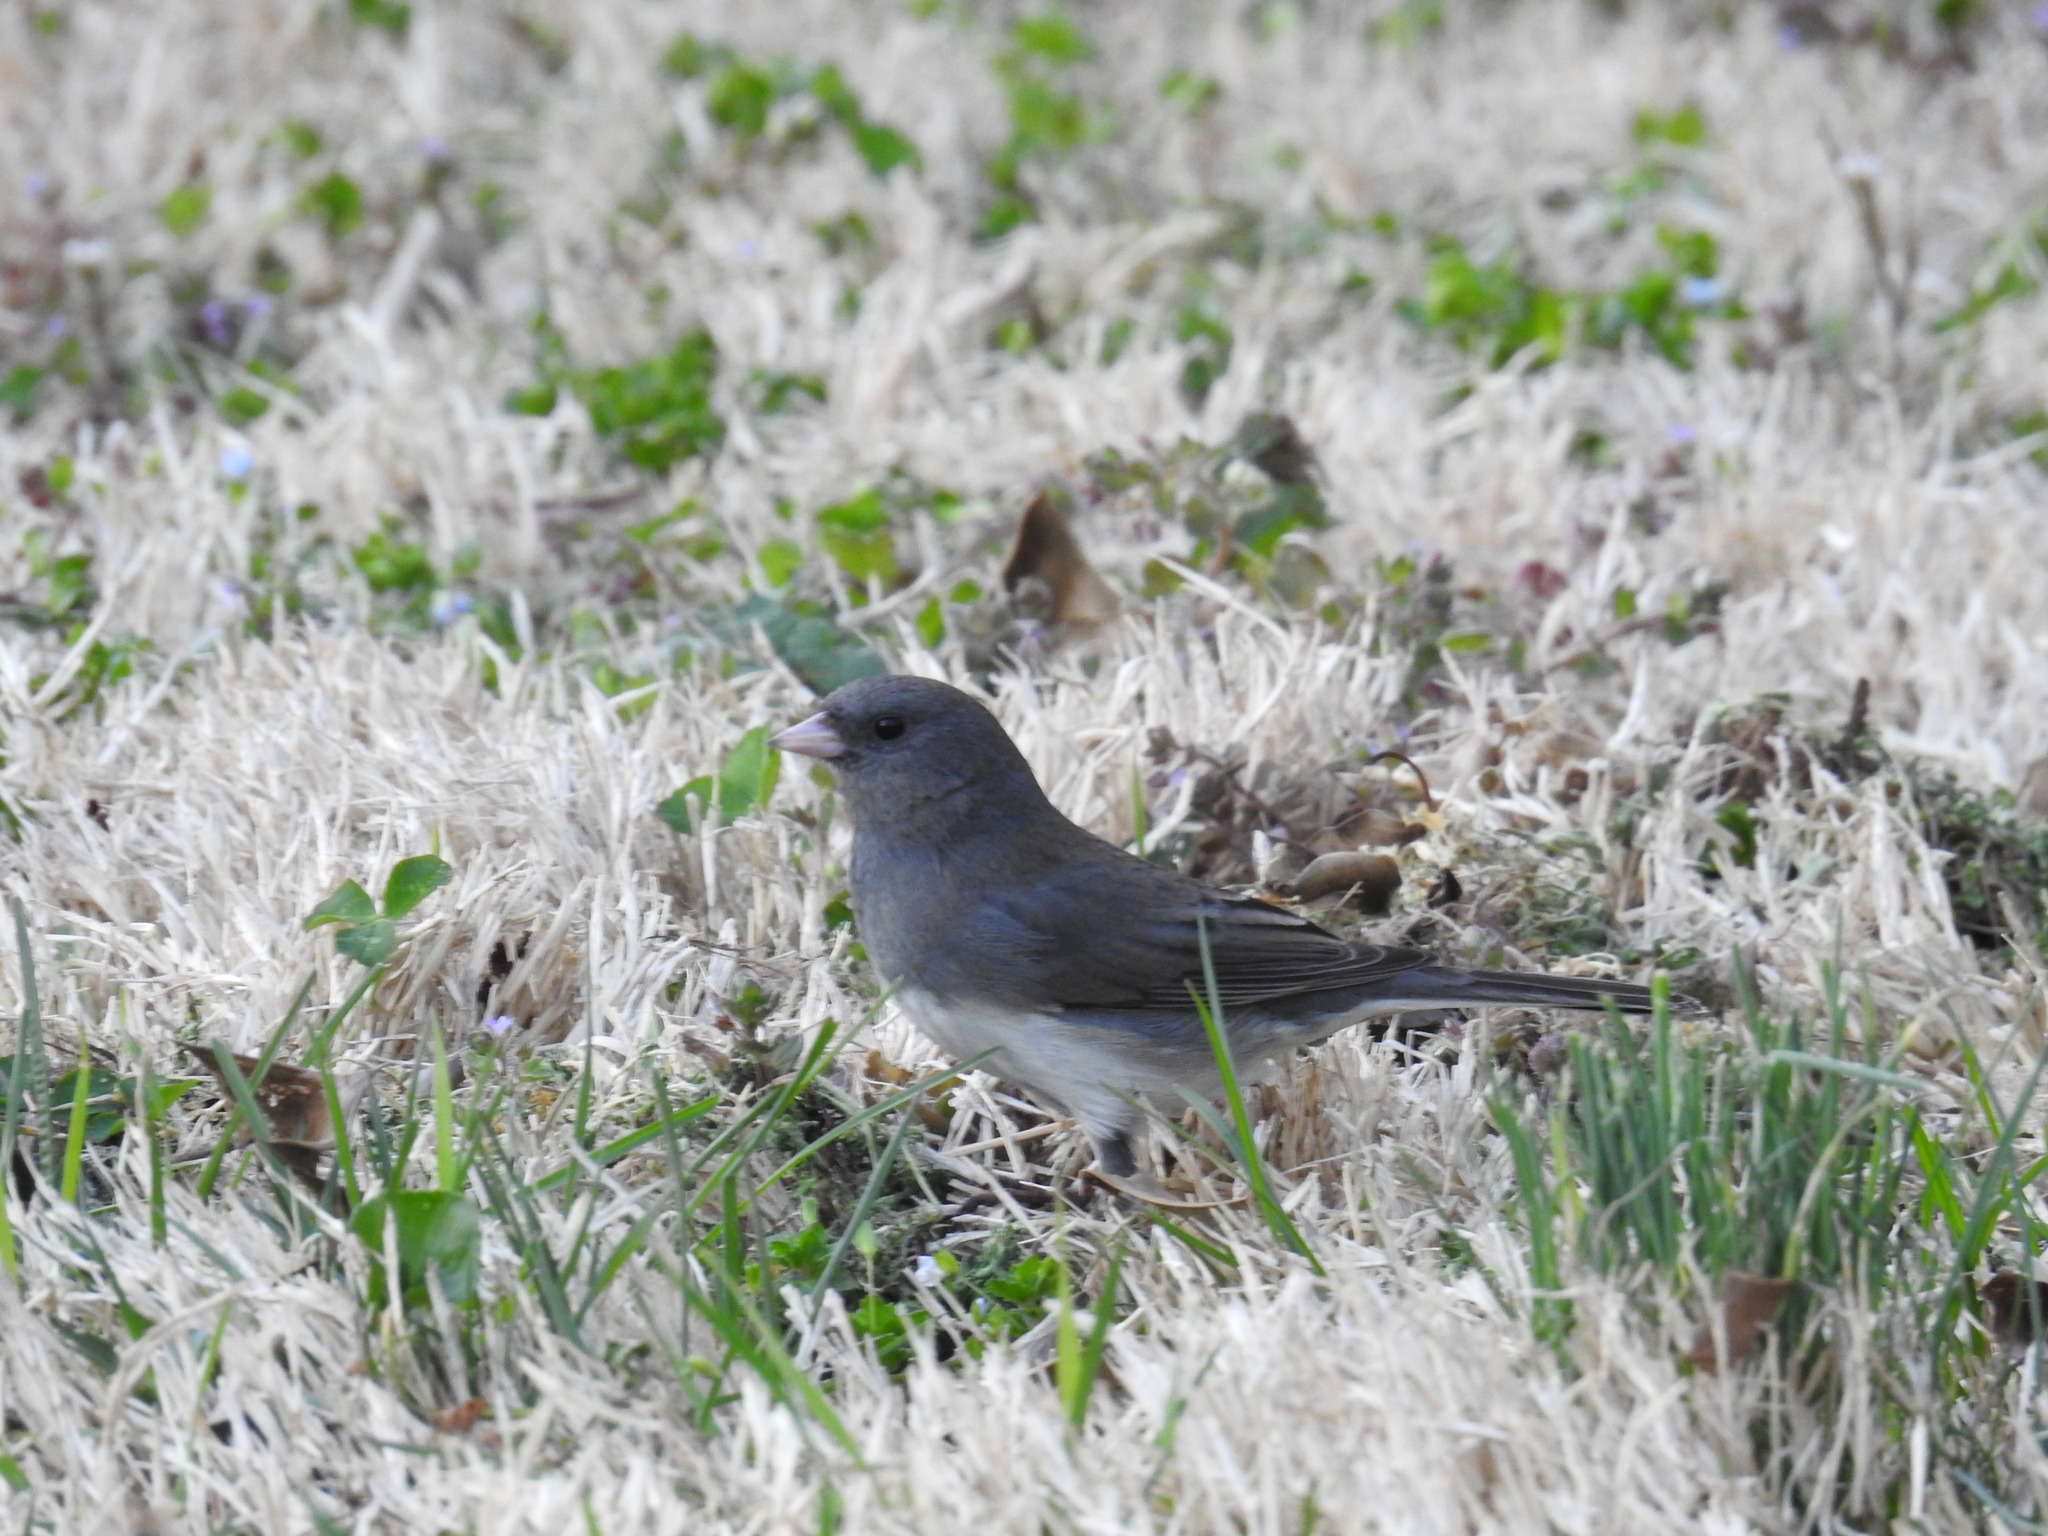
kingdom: Animalia
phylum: Chordata
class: Aves
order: Passeriformes
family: Passerellidae
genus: Junco
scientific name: Junco hyemalis
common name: Dark-eyed junco
